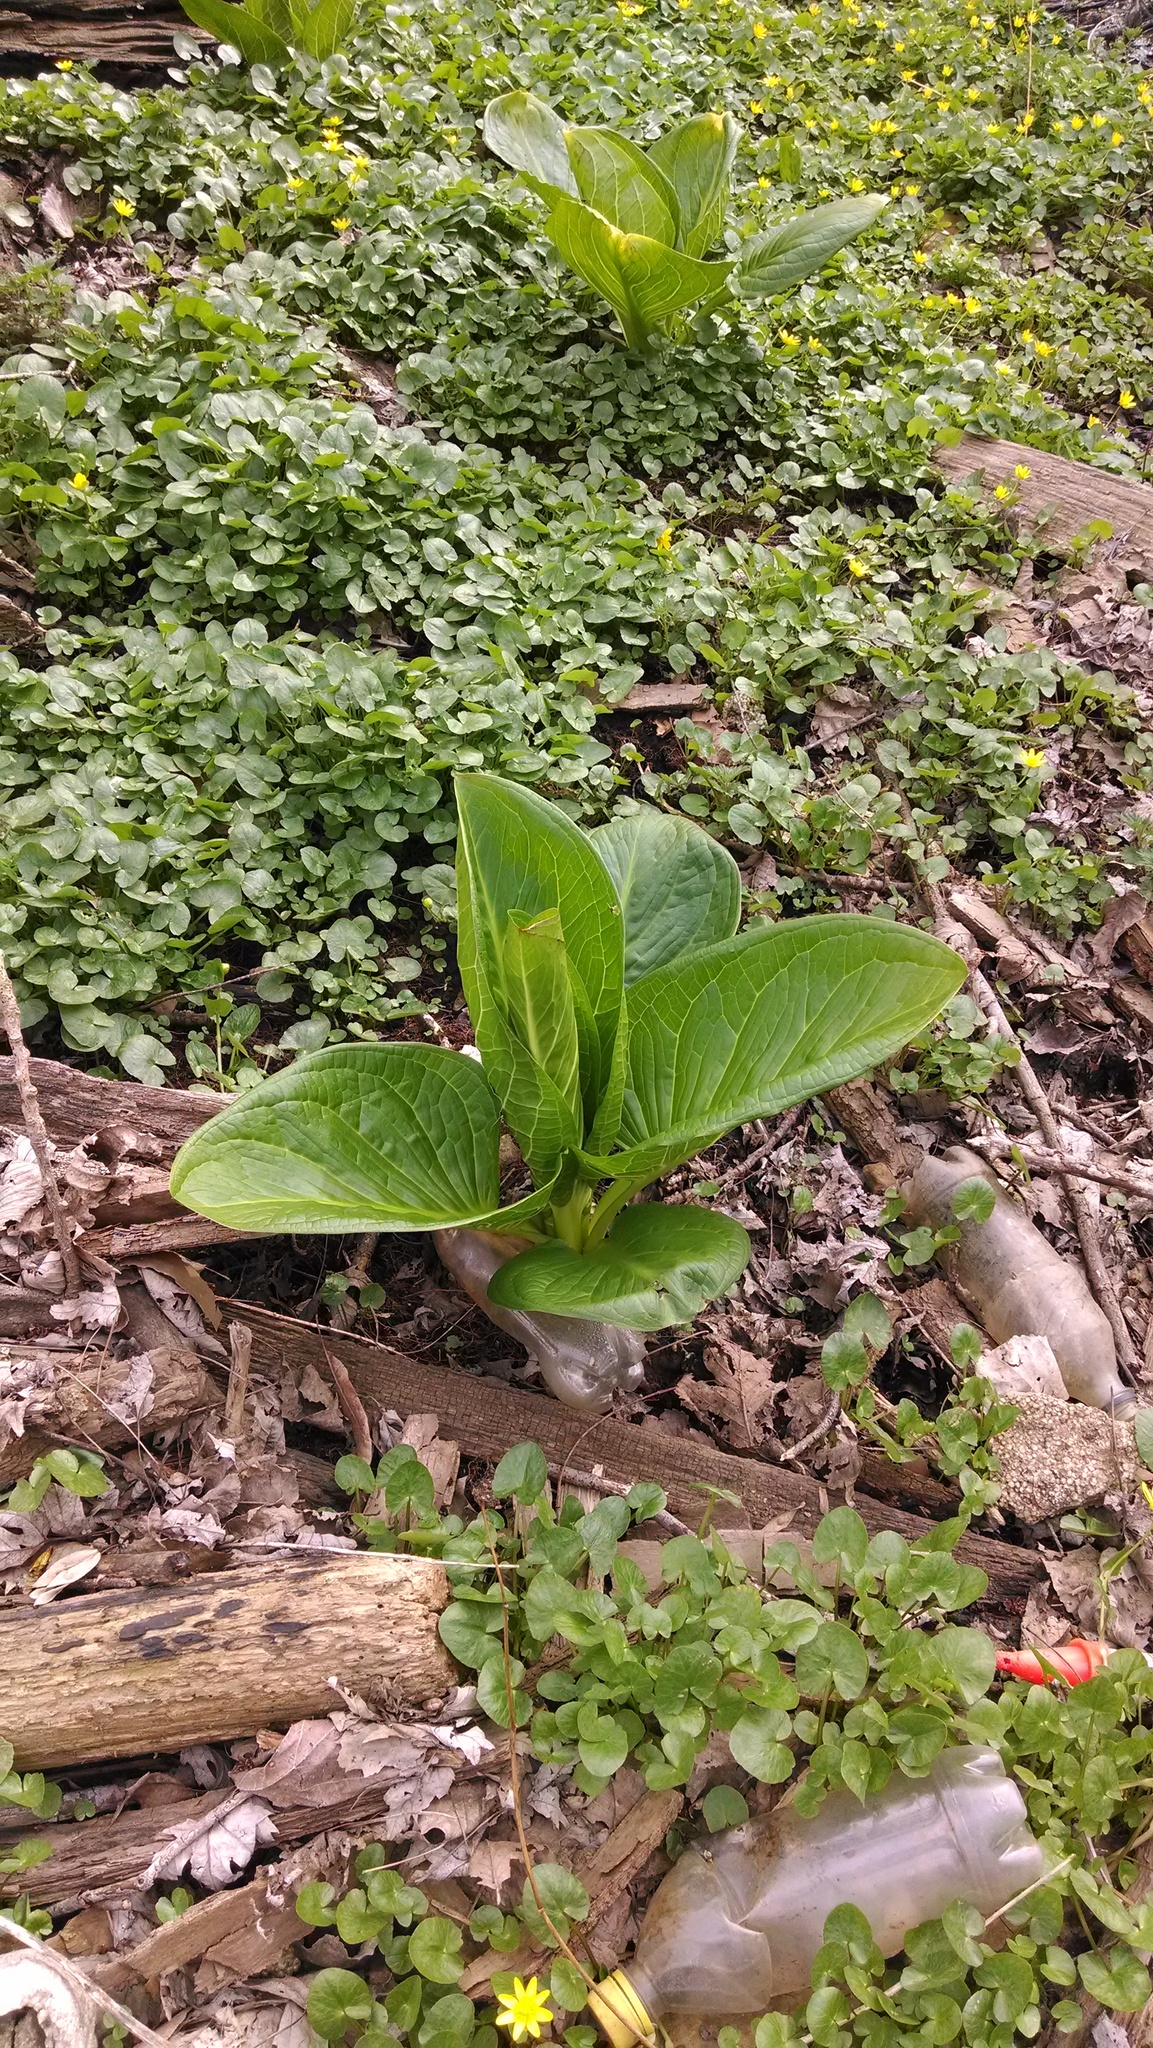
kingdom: Plantae
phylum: Tracheophyta
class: Liliopsida
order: Alismatales
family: Araceae
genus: Symplocarpus
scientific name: Symplocarpus foetidus
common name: Eastern skunk cabbage
